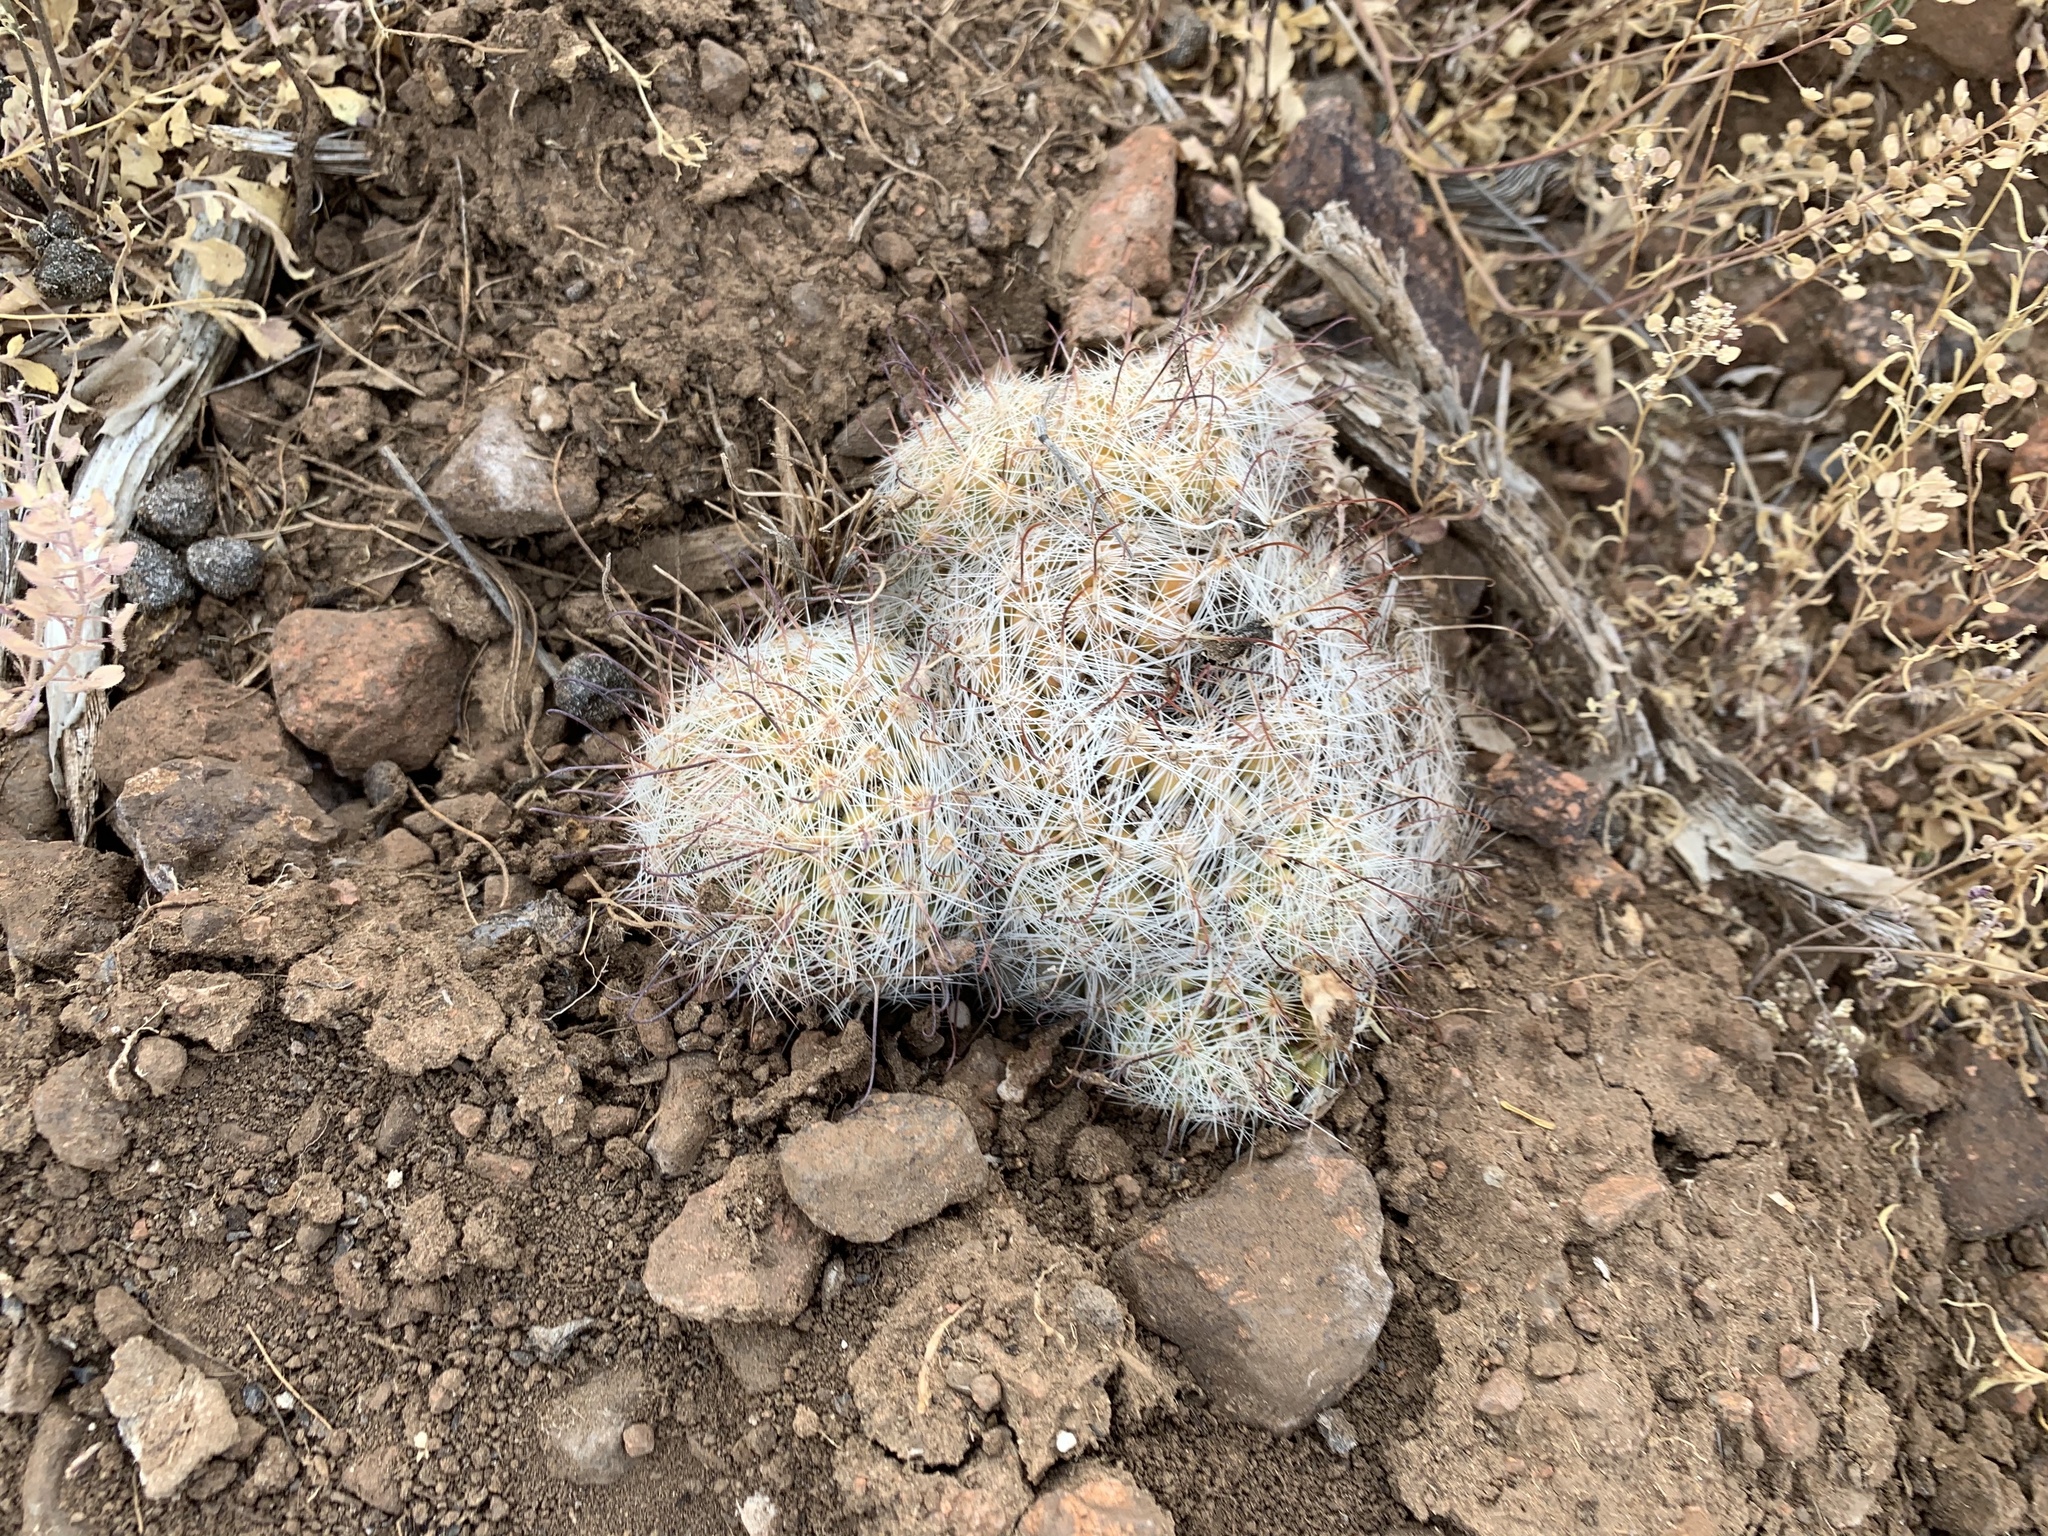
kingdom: Plantae
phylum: Tracheophyta
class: Magnoliopsida
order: Caryophyllales
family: Cactaceae
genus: Cochemiea
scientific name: Cochemiea grahamii
